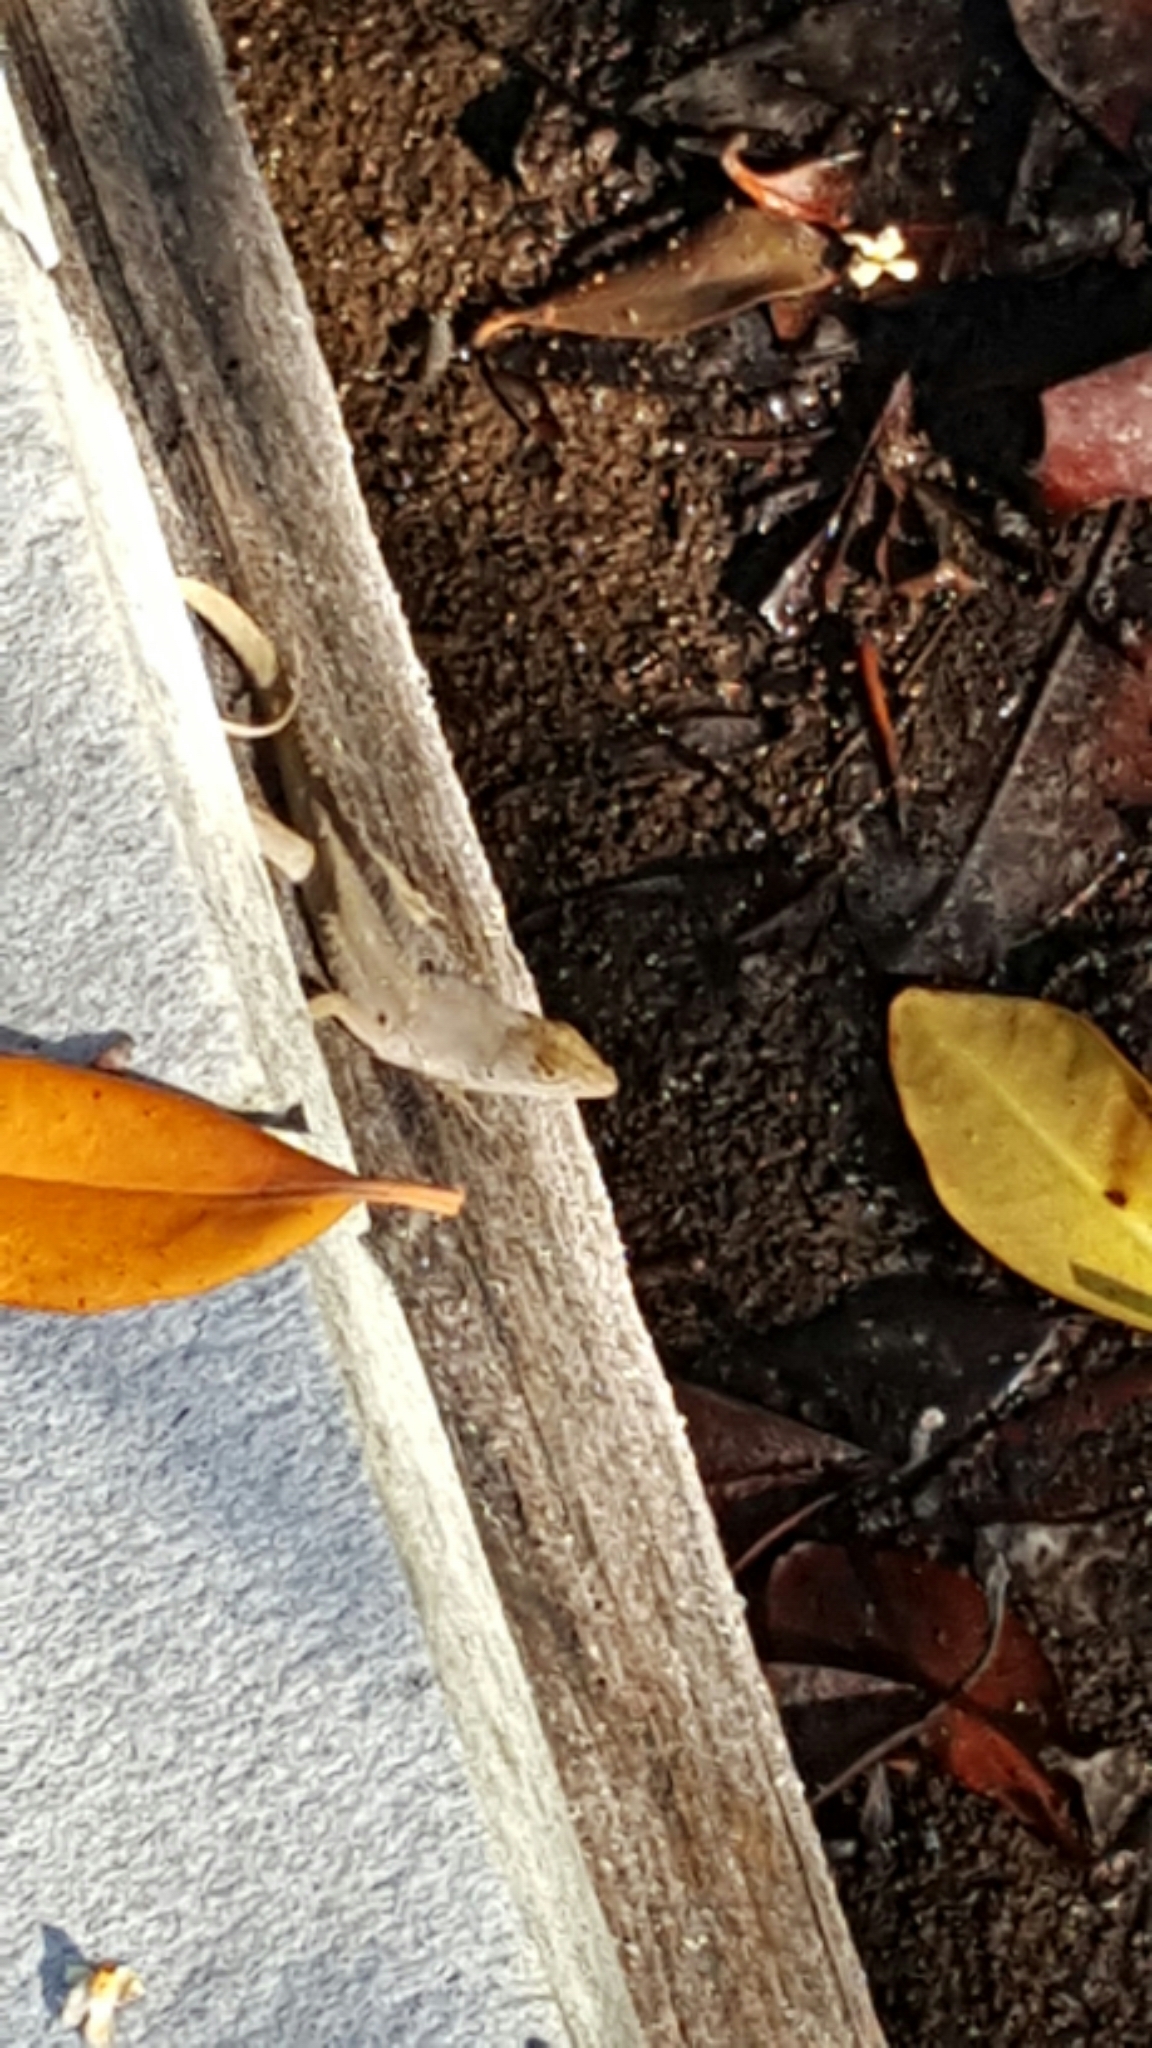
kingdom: Animalia
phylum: Chordata
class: Squamata
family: Dactyloidae
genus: Anolis
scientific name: Anolis sagrei
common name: Brown anole
